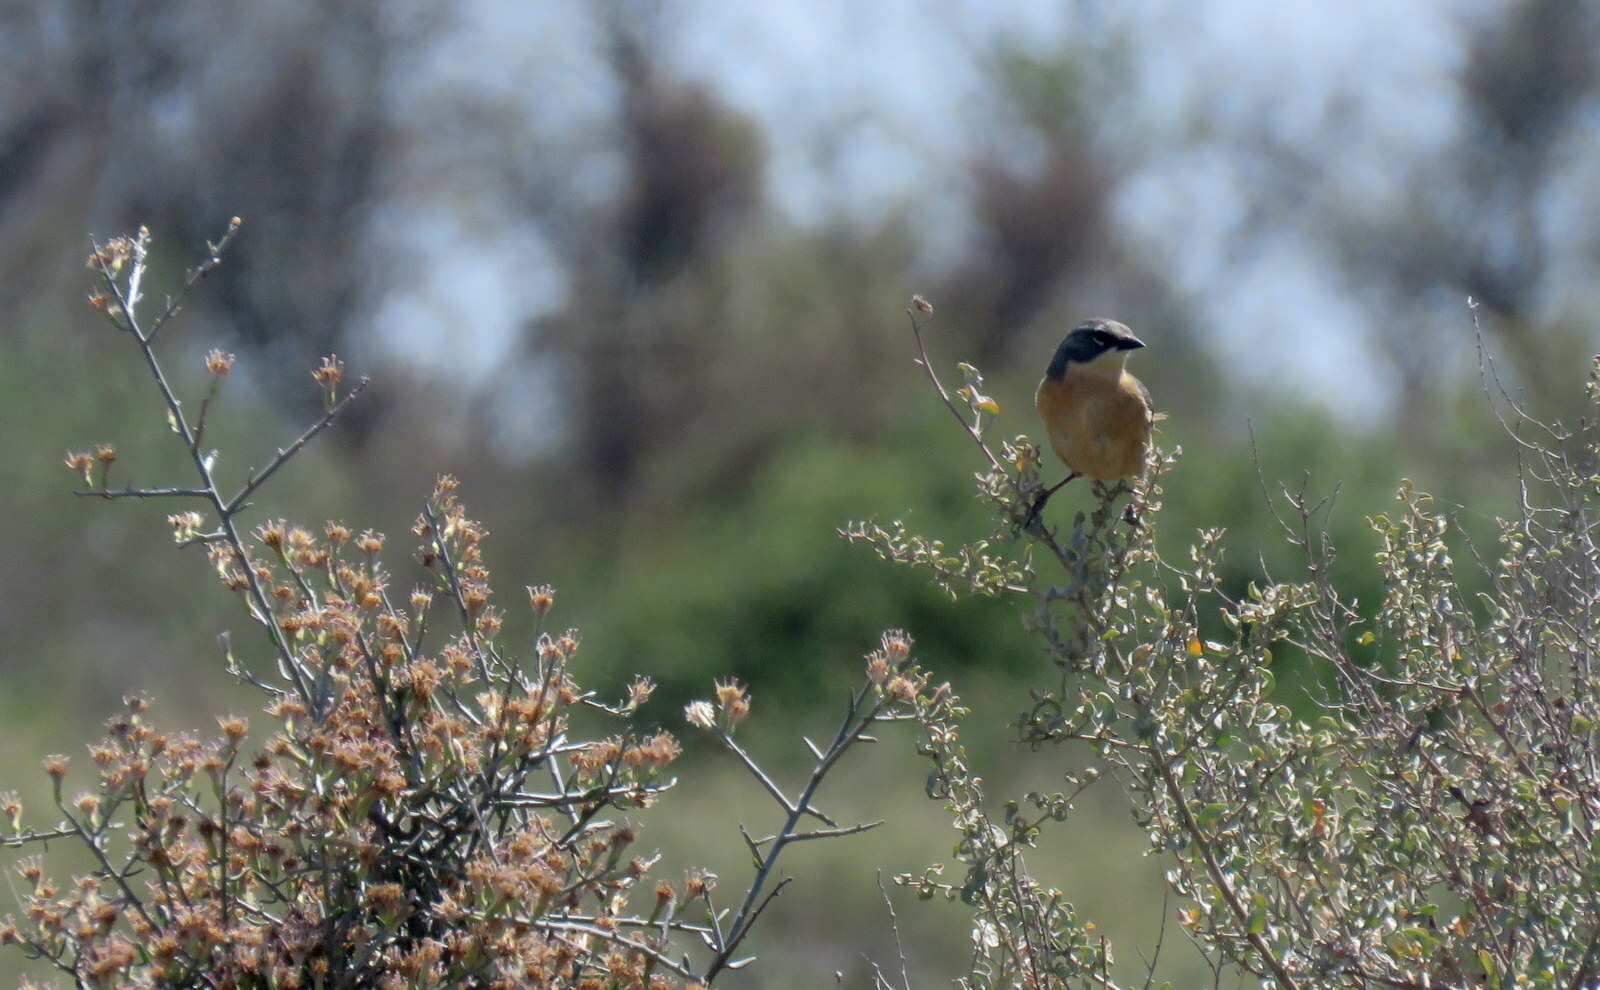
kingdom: Animalia
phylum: Chordata
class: Aves
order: Passeriformes
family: Thraupidae
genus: Donacospiza
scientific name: Donacospiza albifrons
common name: Long-tailed reed finch
